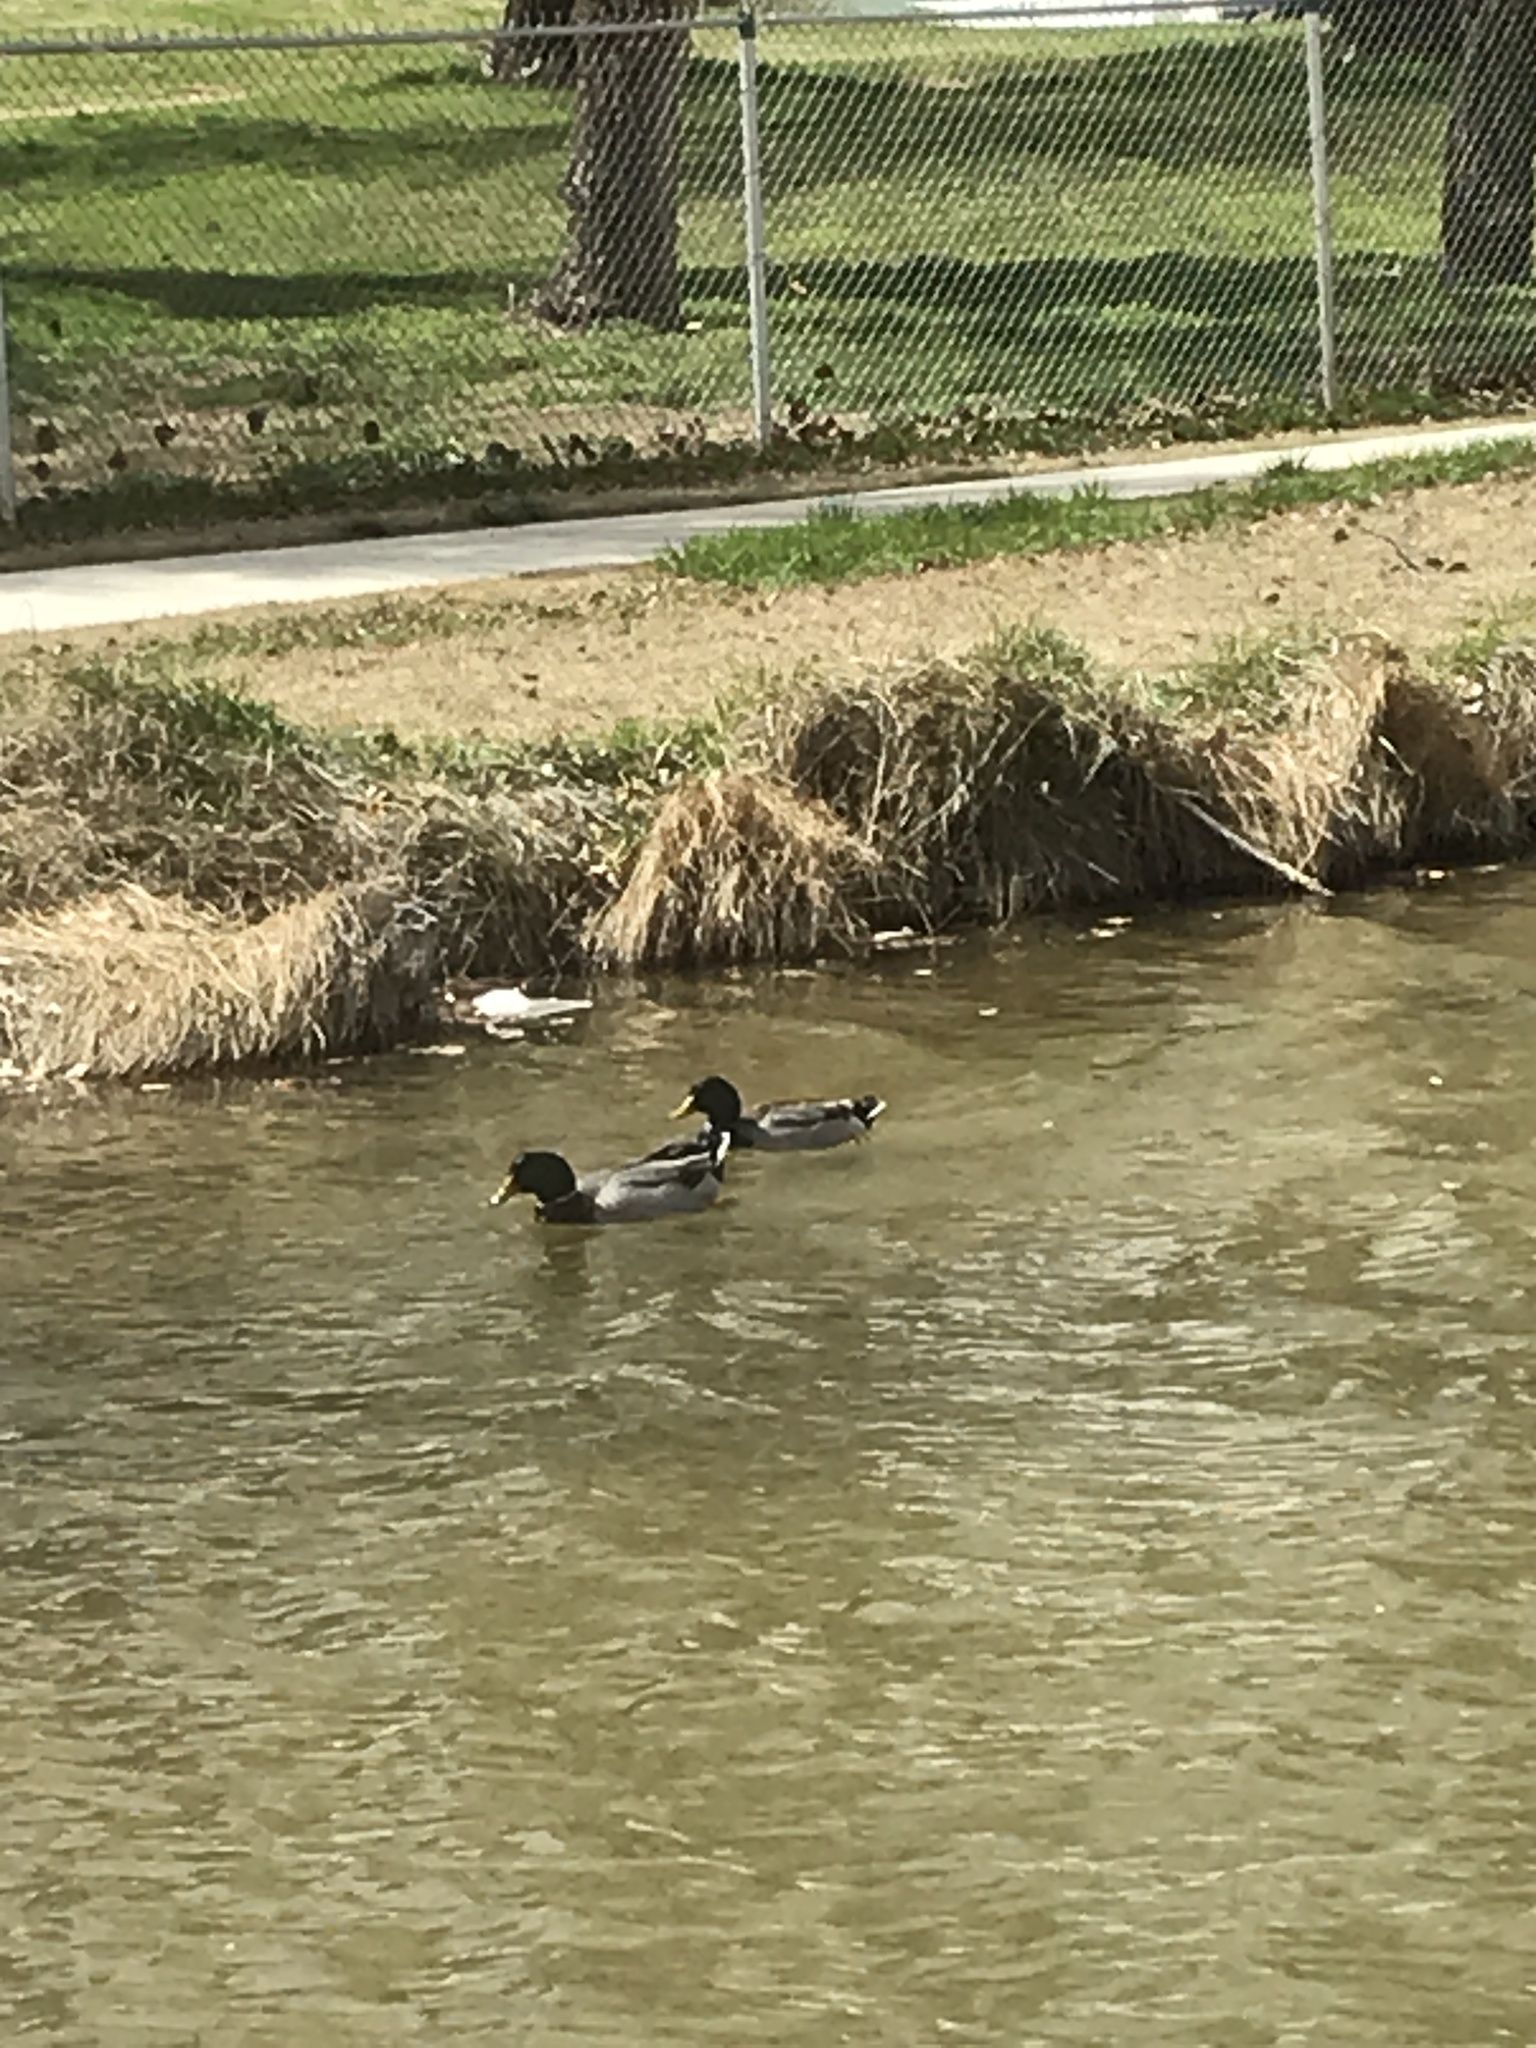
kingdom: Animalia
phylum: Chordata
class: Aves
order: Anseriformes
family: Anatidae
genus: Anas
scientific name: Anas platyrhynchos
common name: Mallard
